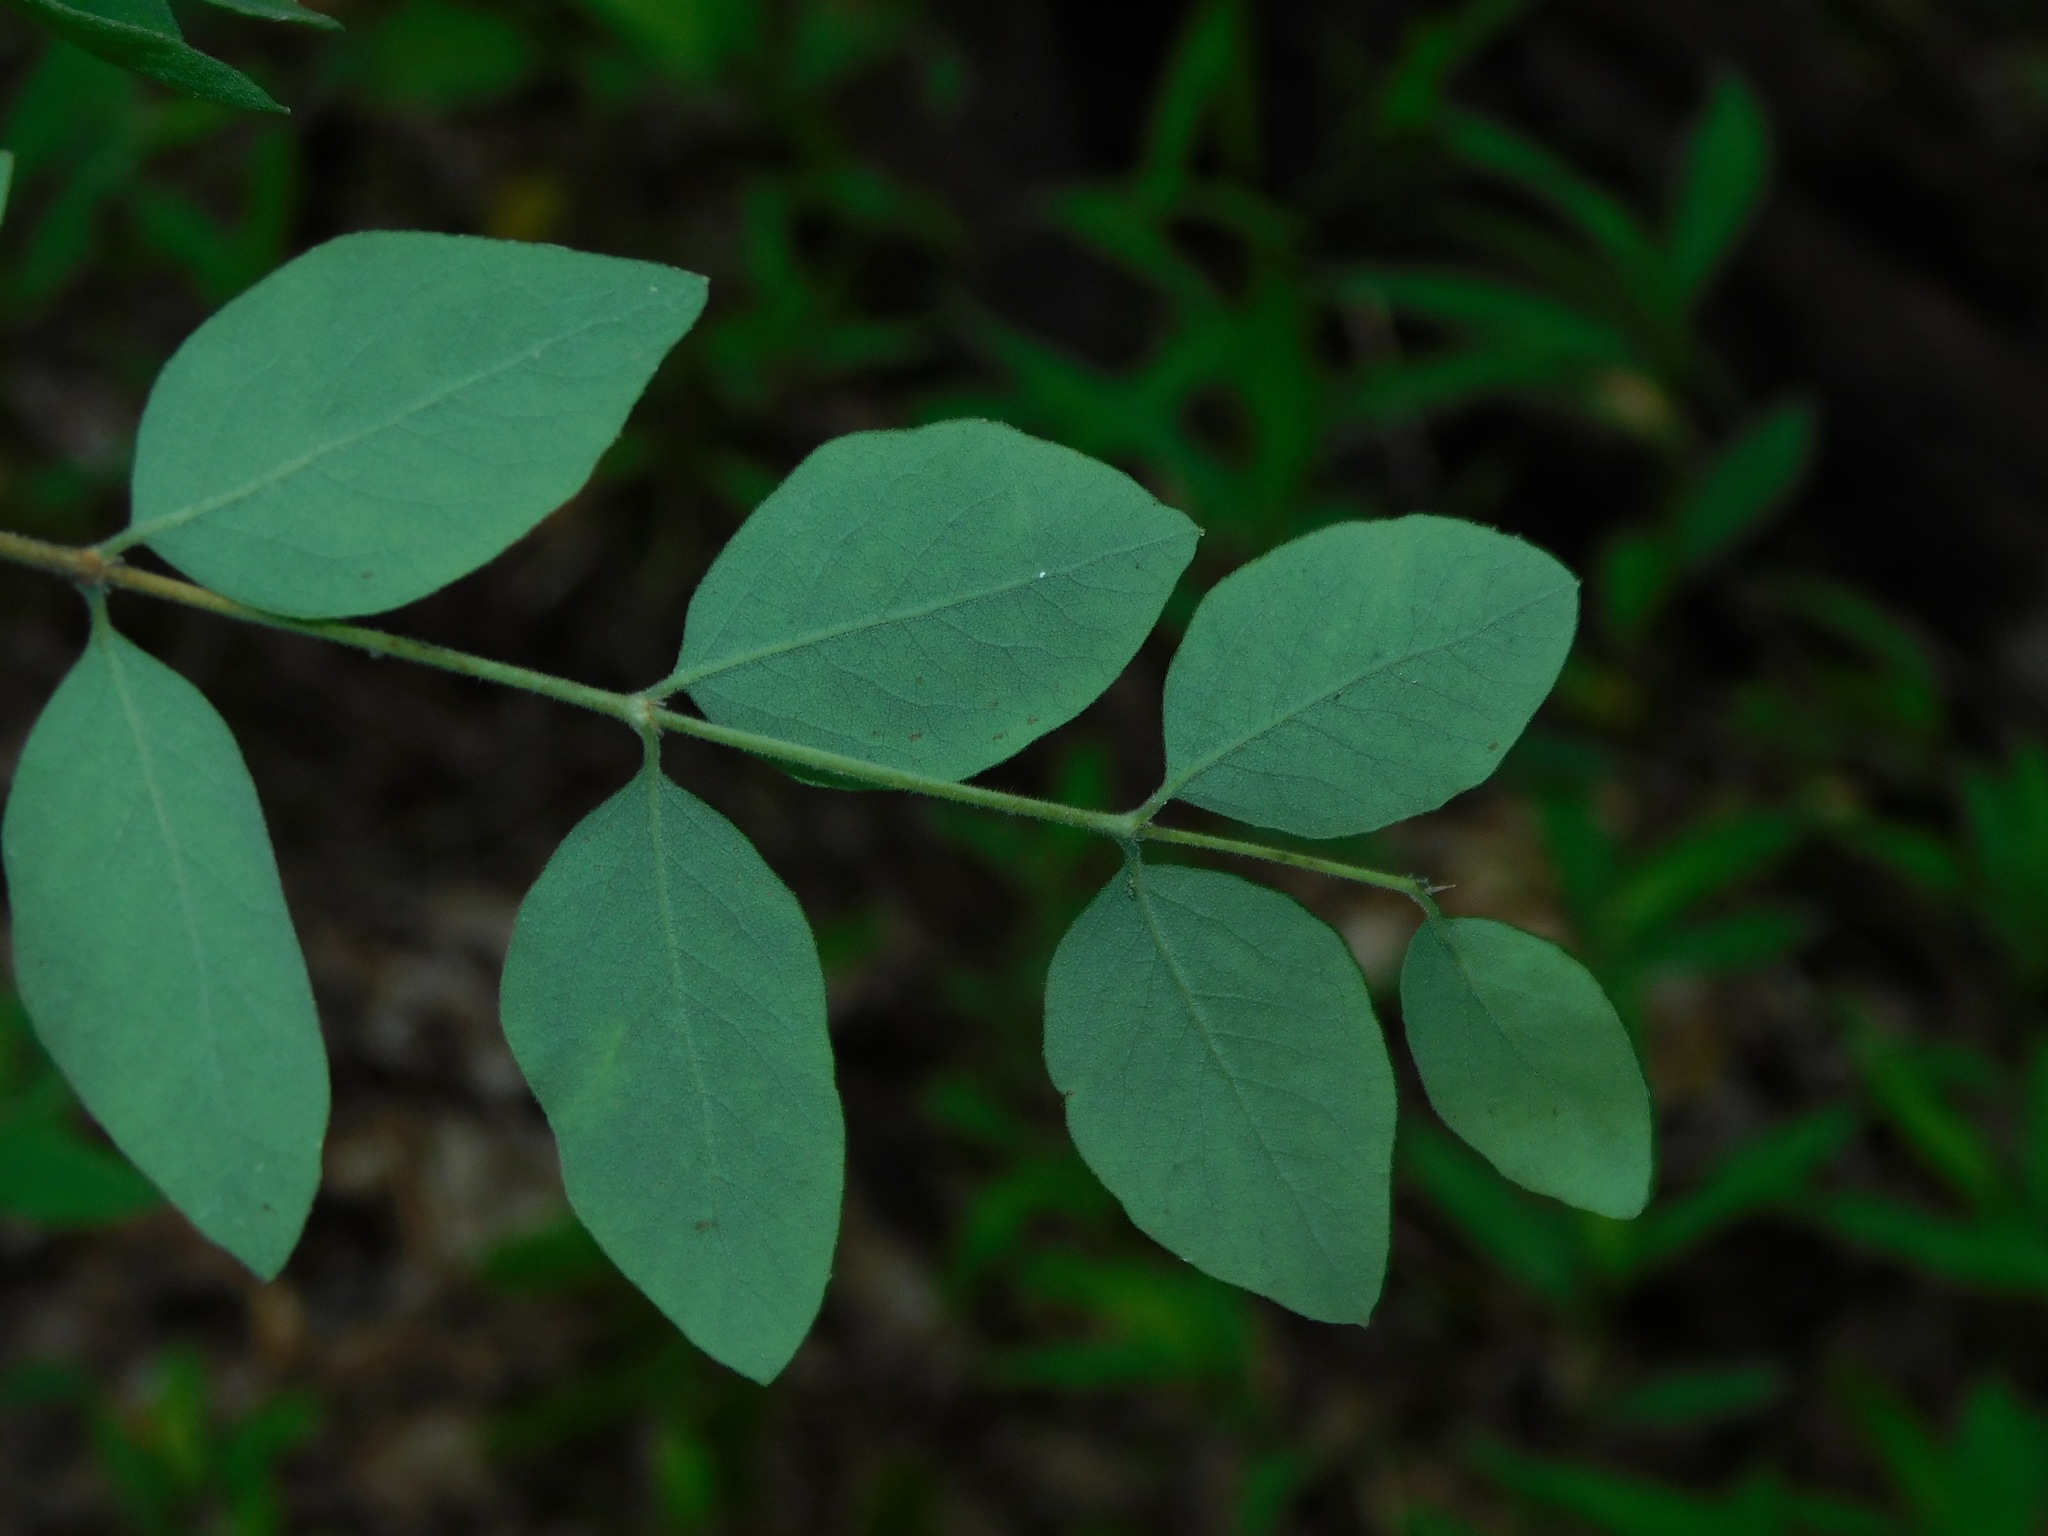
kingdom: Plantae
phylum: Tracheophyta
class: Magnoliopsida
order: Dipsacales
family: Caprifoliaceae
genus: Symphoricarpos
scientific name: Symphoricarpos orbiculatus
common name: Coralberry
